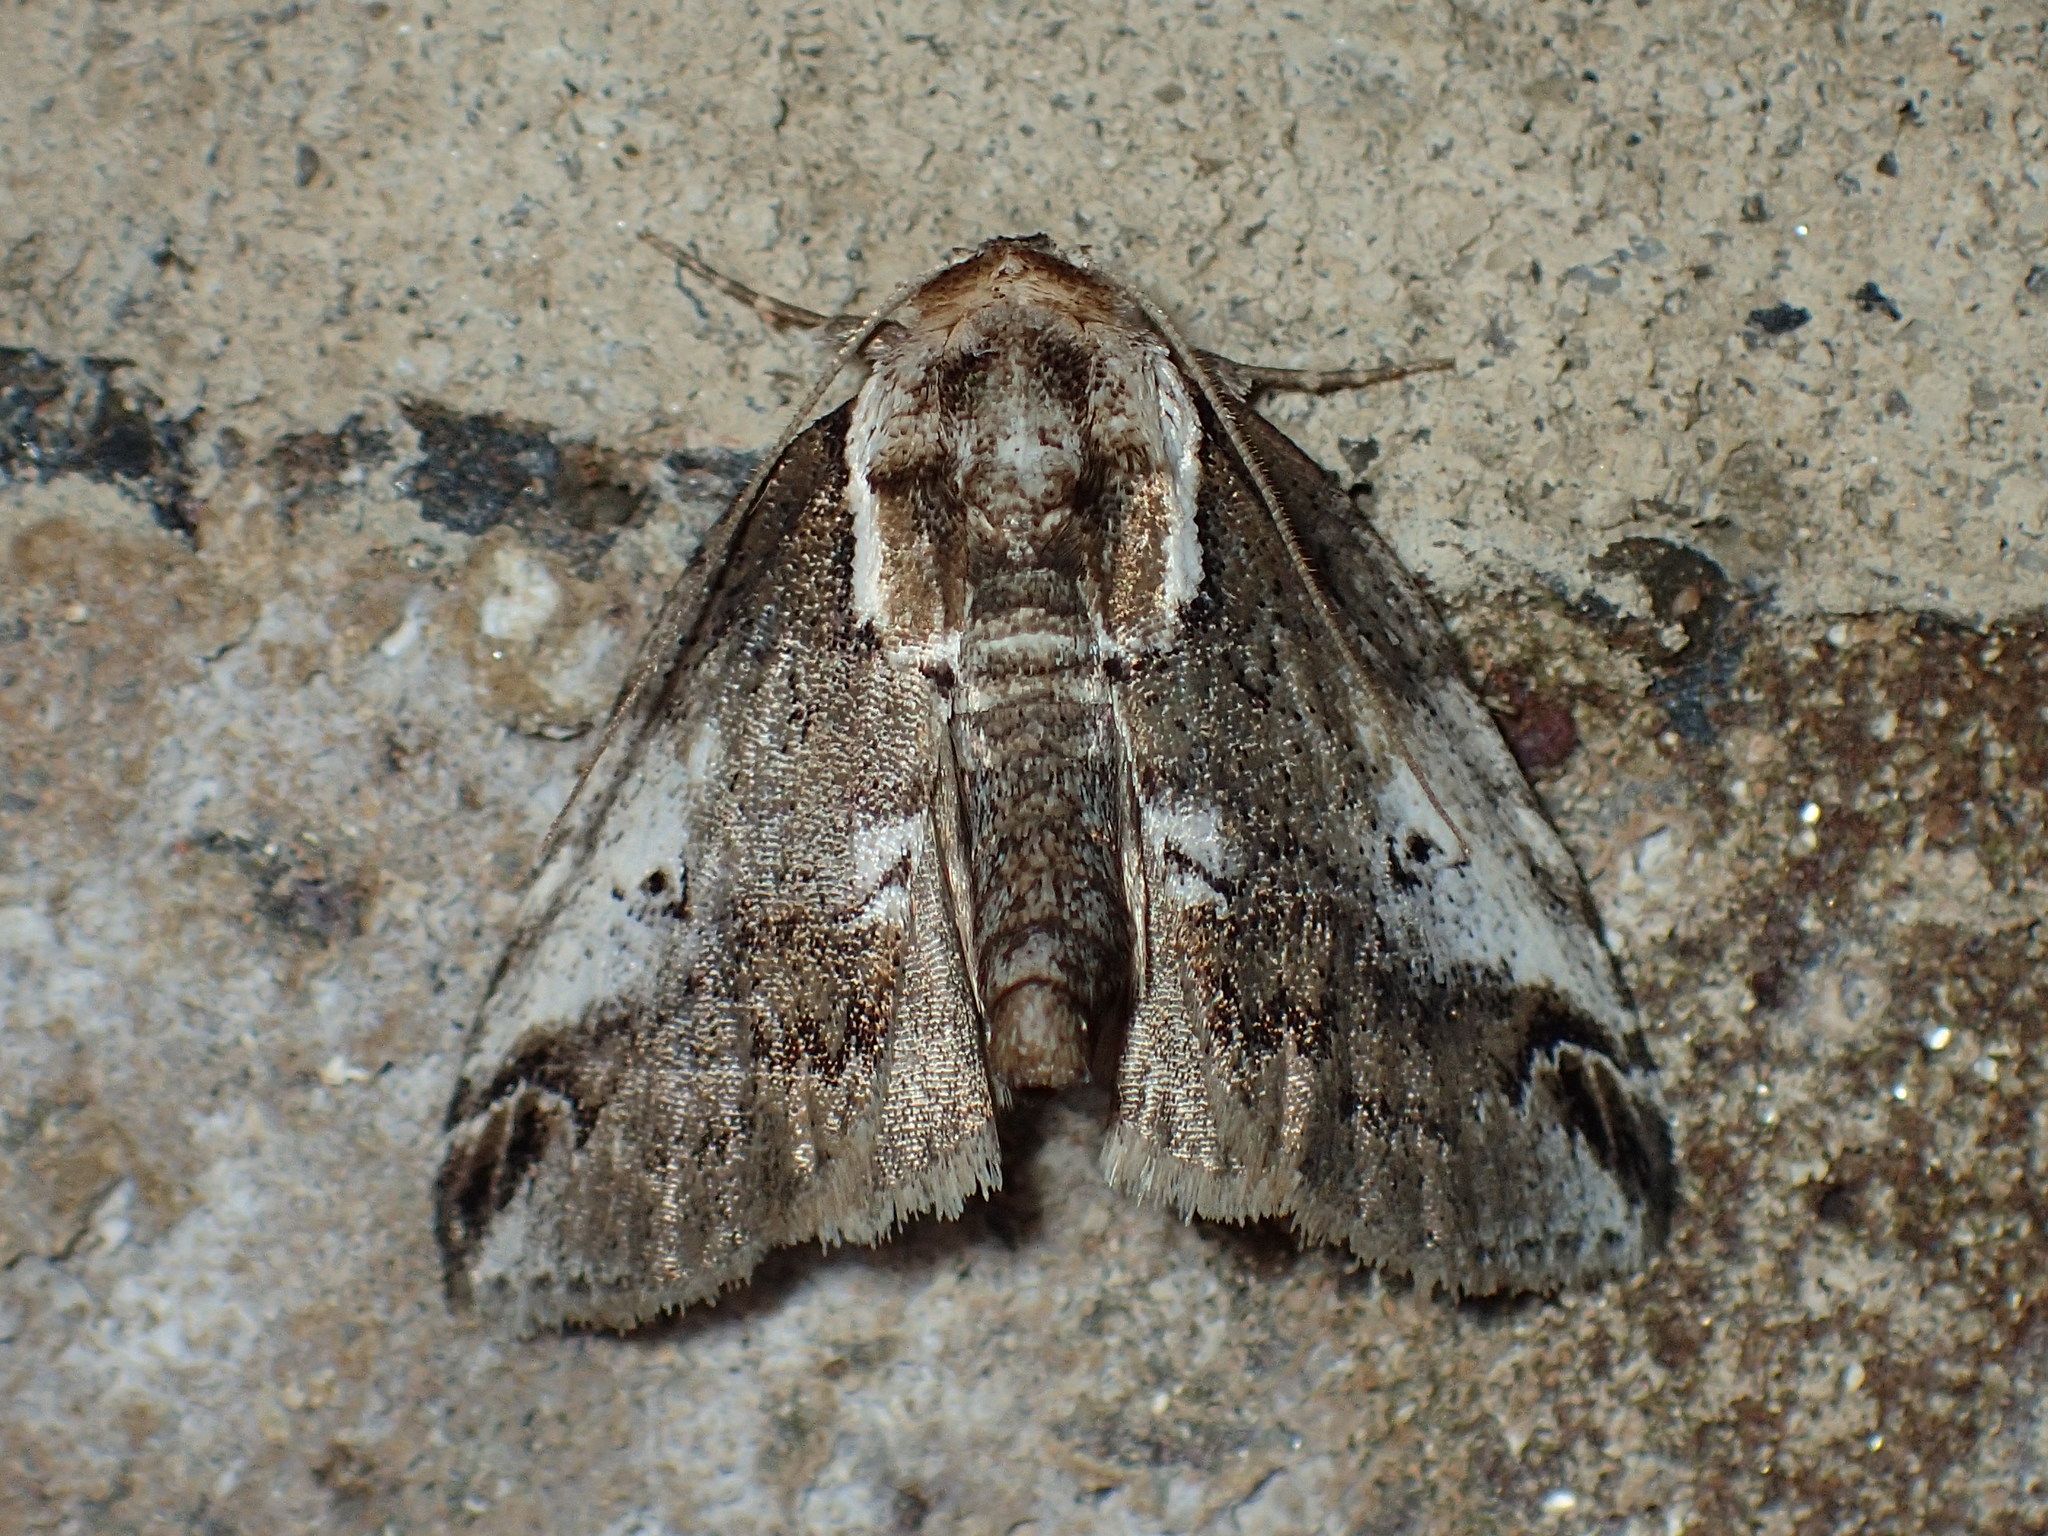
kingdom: Animalia
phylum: Arthropoda
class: Insecta
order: Lepidoptera
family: Nolidae
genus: Baileya
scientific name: Baileya ophthalmica
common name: Eyed baileya moth
